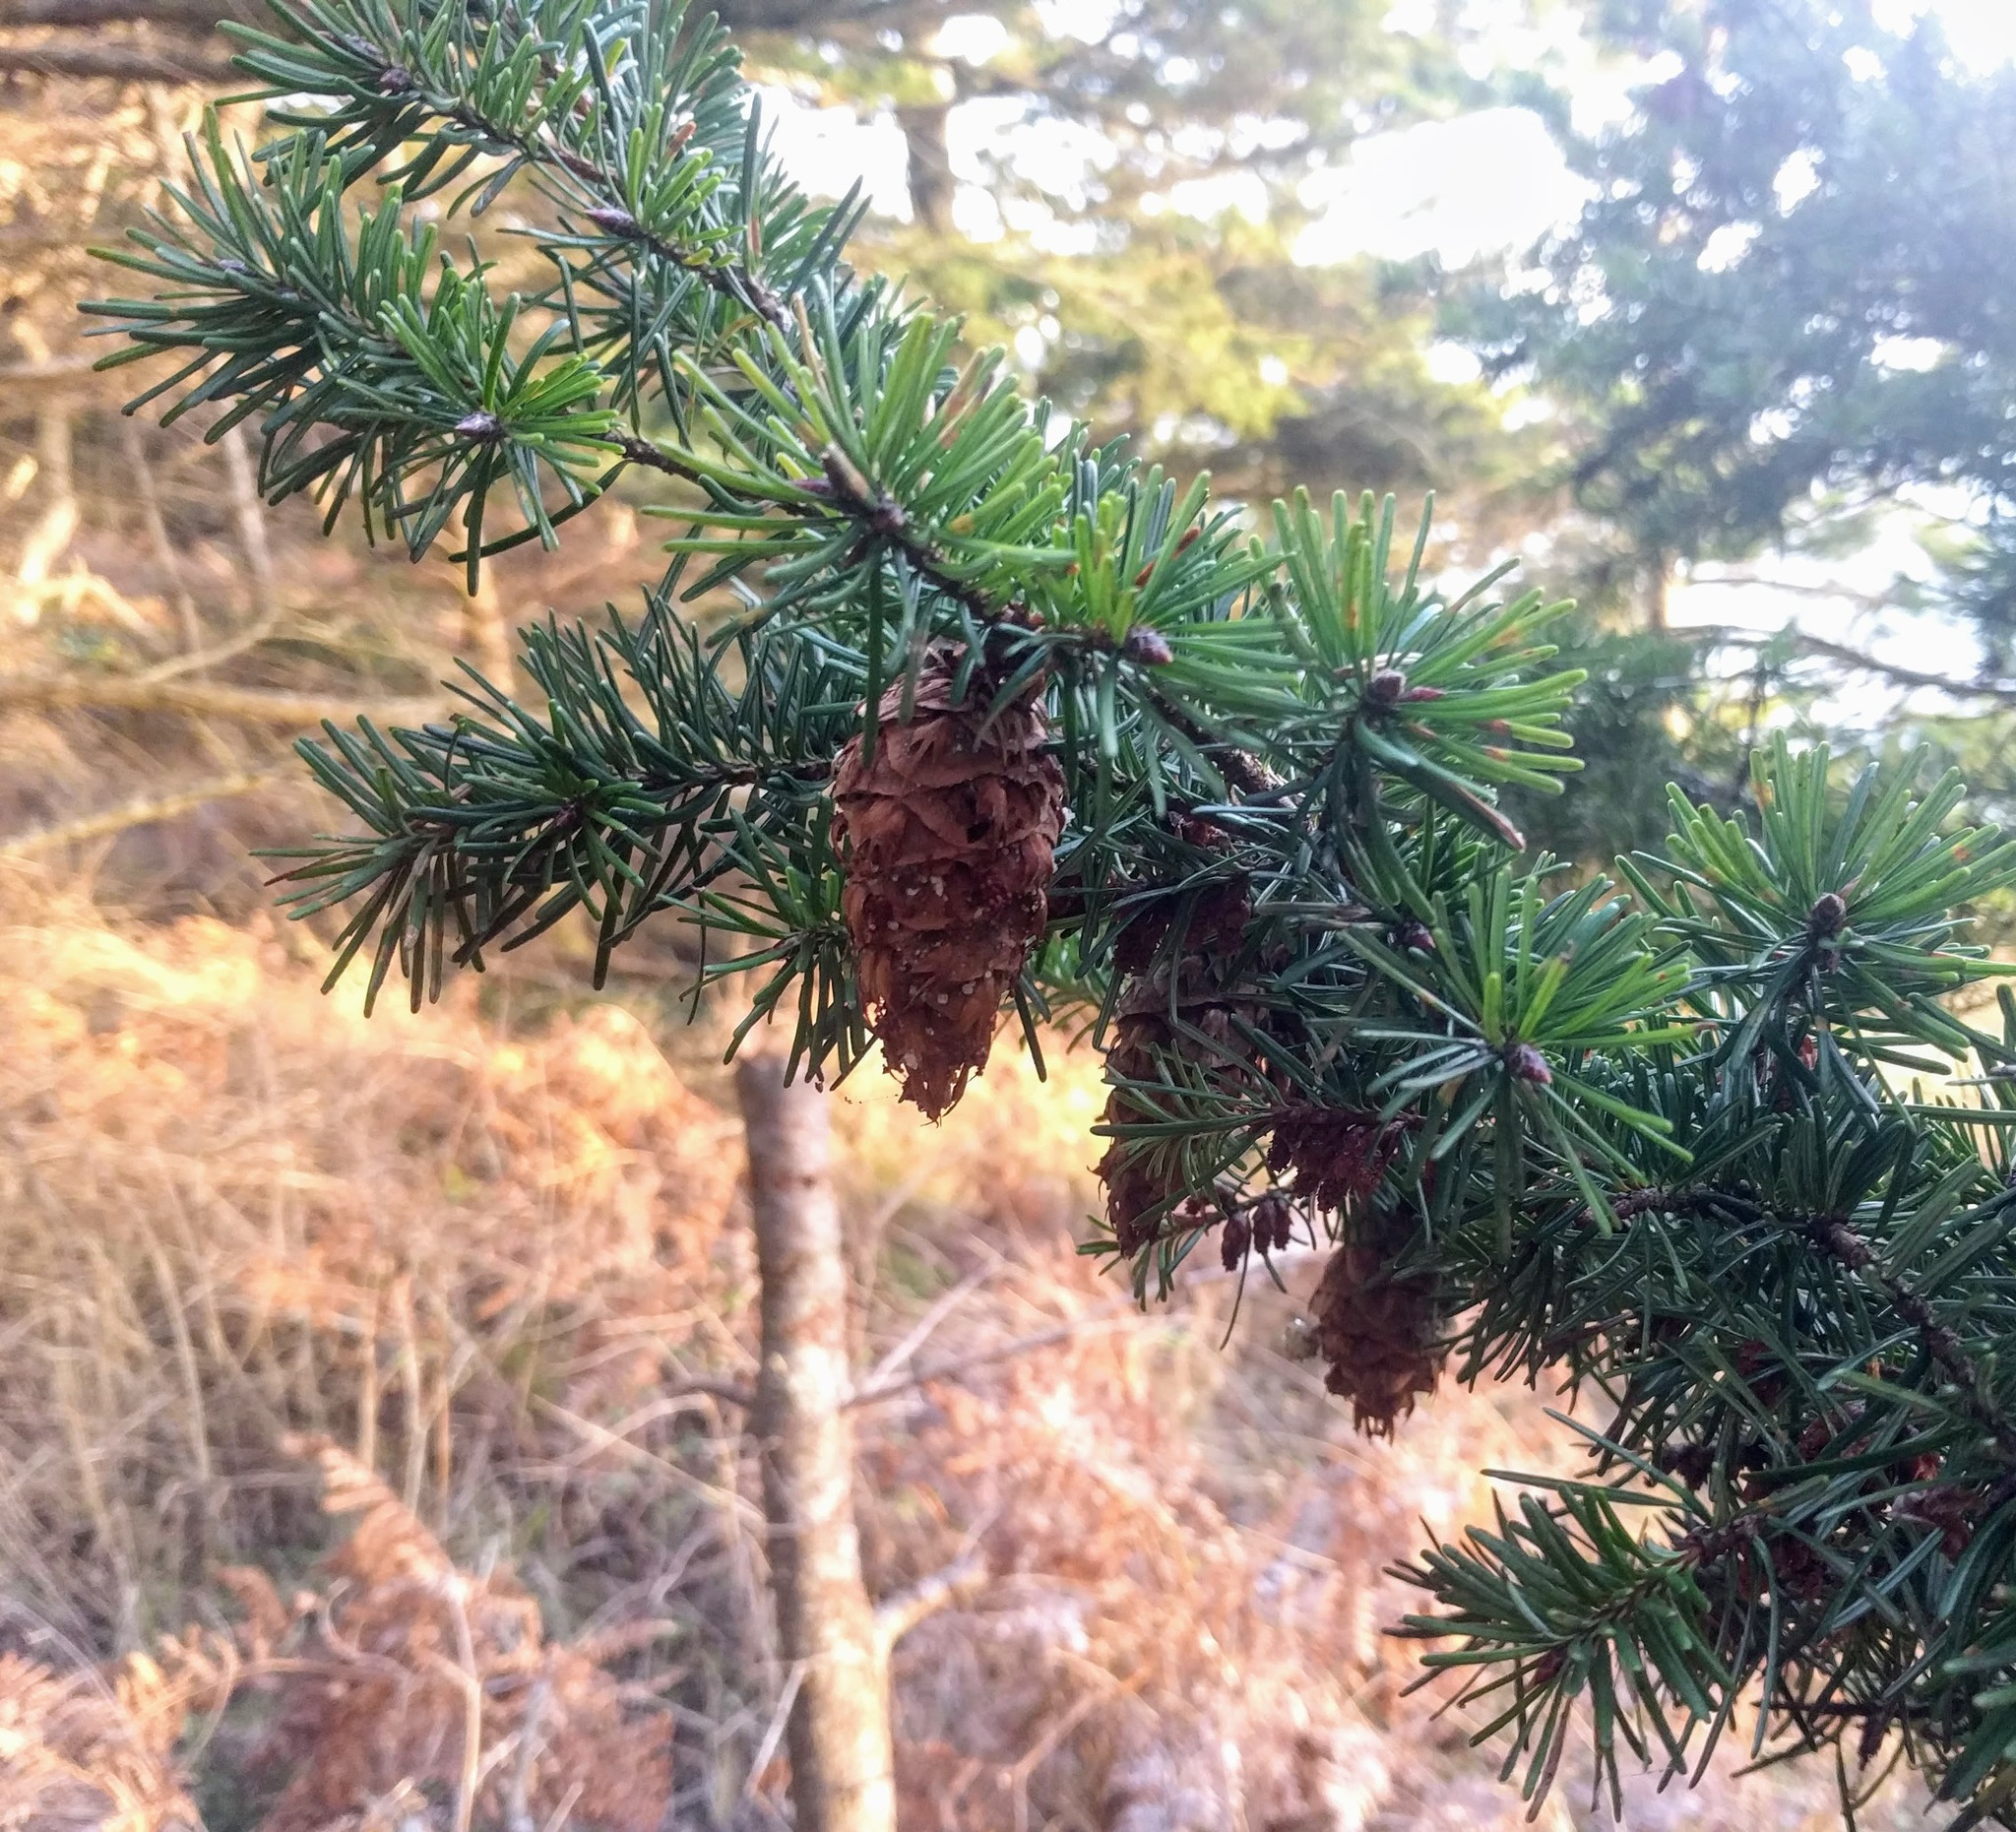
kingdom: Plantae
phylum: Tracheophyta
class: Pinopsida
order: Pinales
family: Pinaceae
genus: Pseudotsuga
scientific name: Pseudotsuga menziesii
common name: Douglas fir
